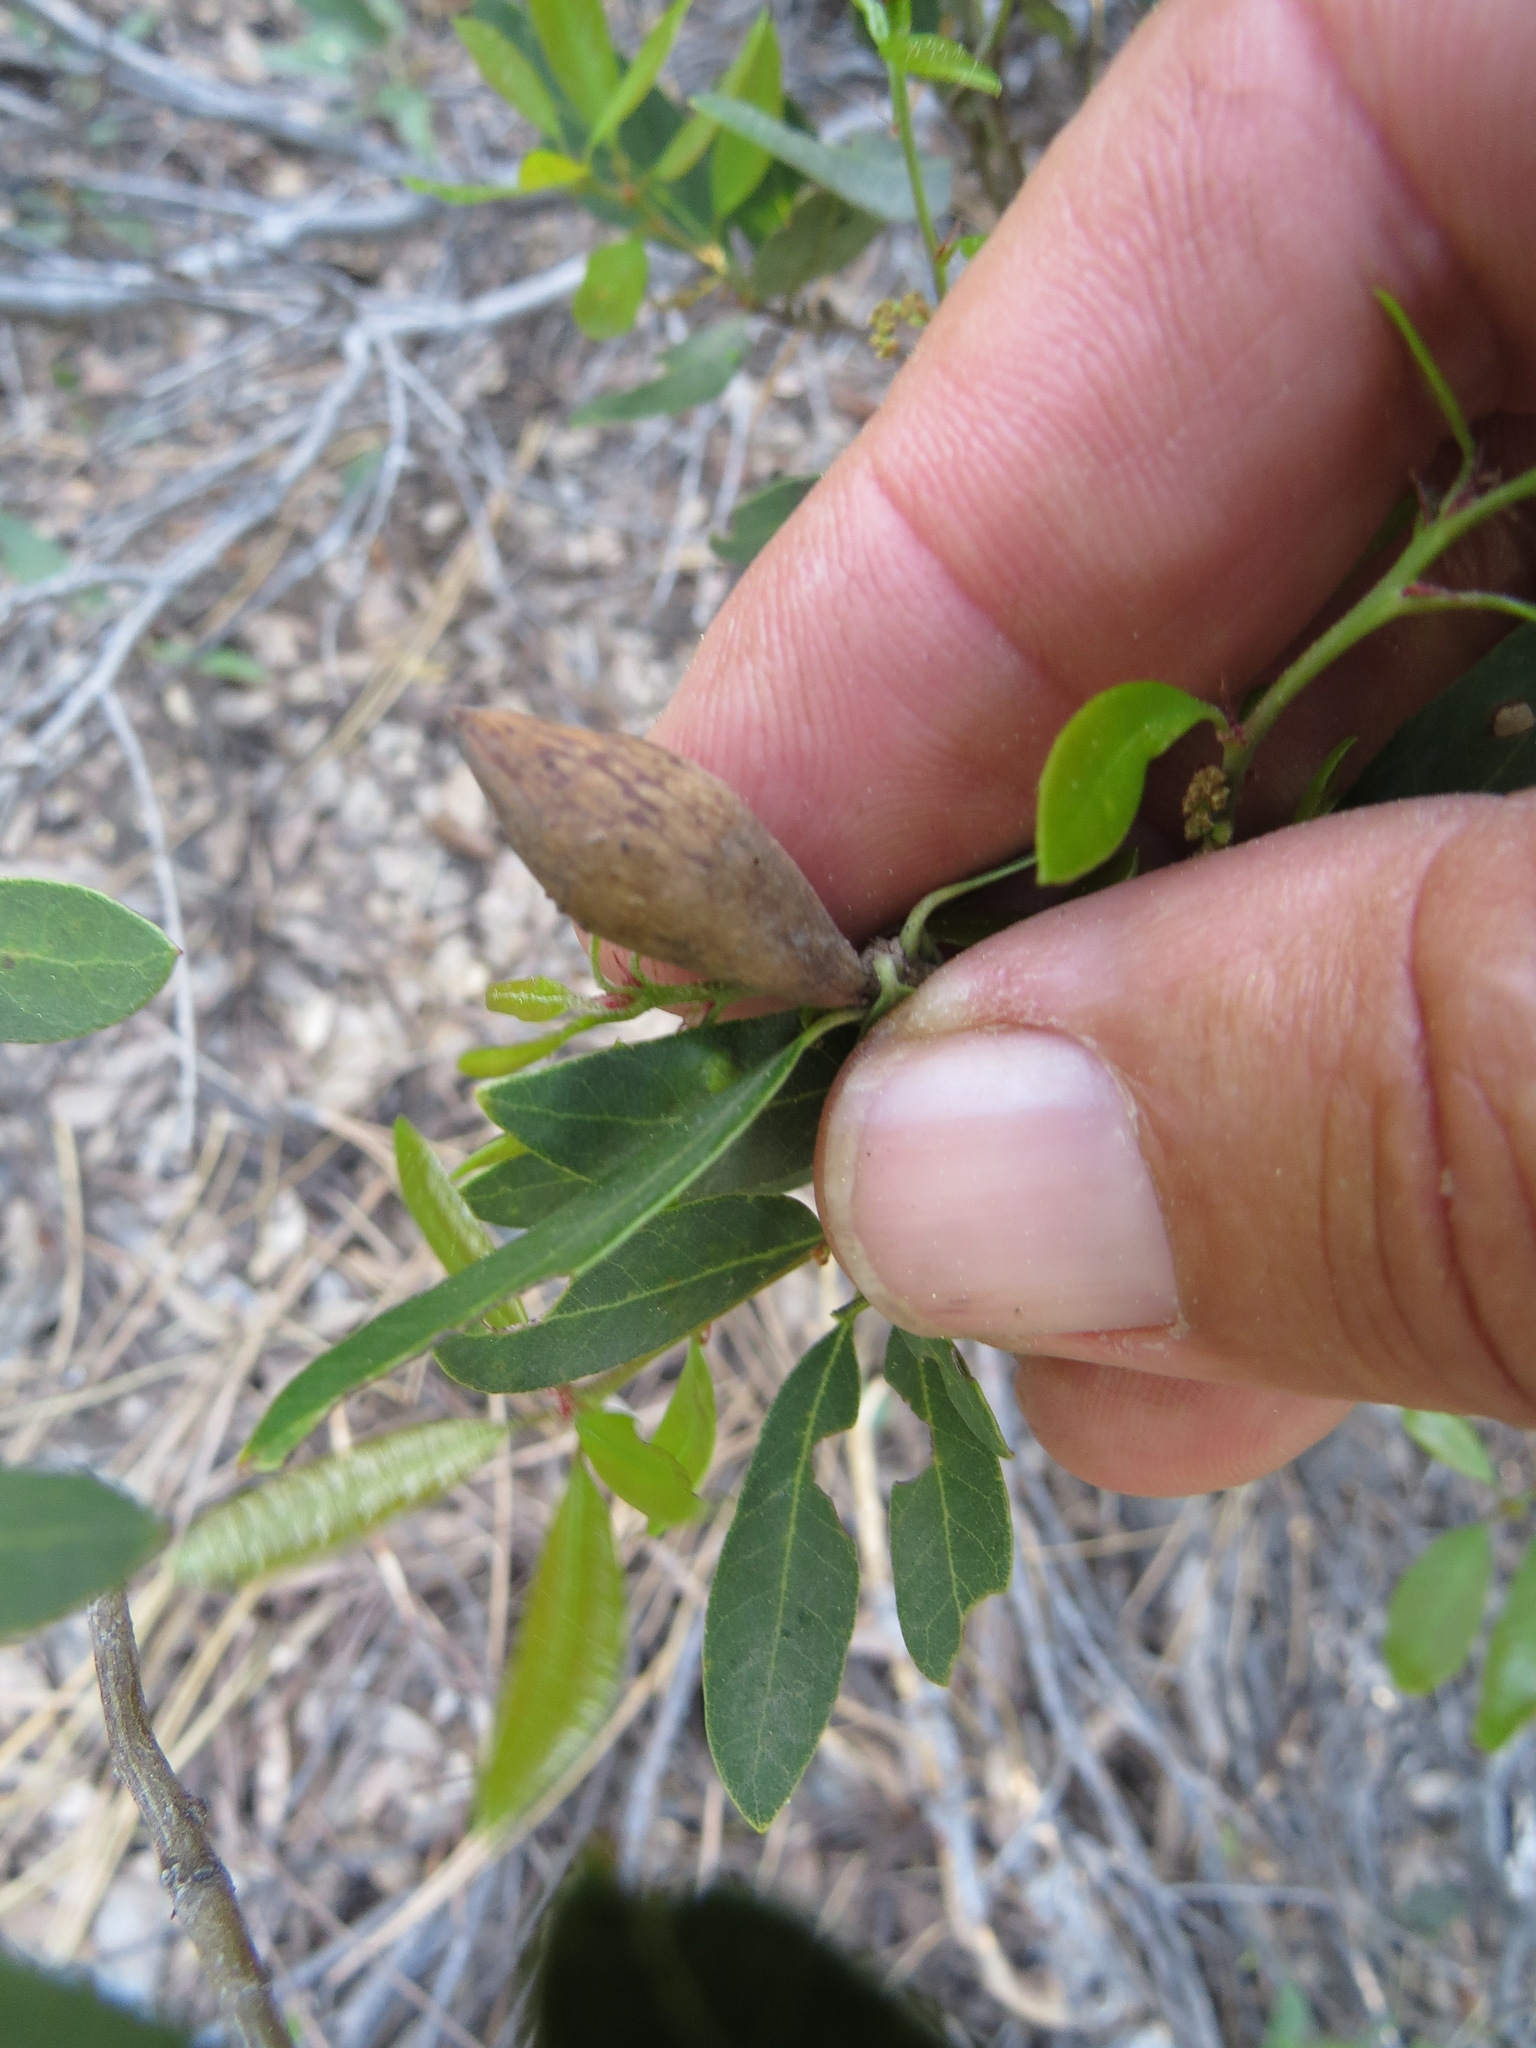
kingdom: Animalia
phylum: Arthropoda
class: Insecta
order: Hymenoptera
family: Cynipidae
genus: Heteroecus
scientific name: Heteroecus pacificus
